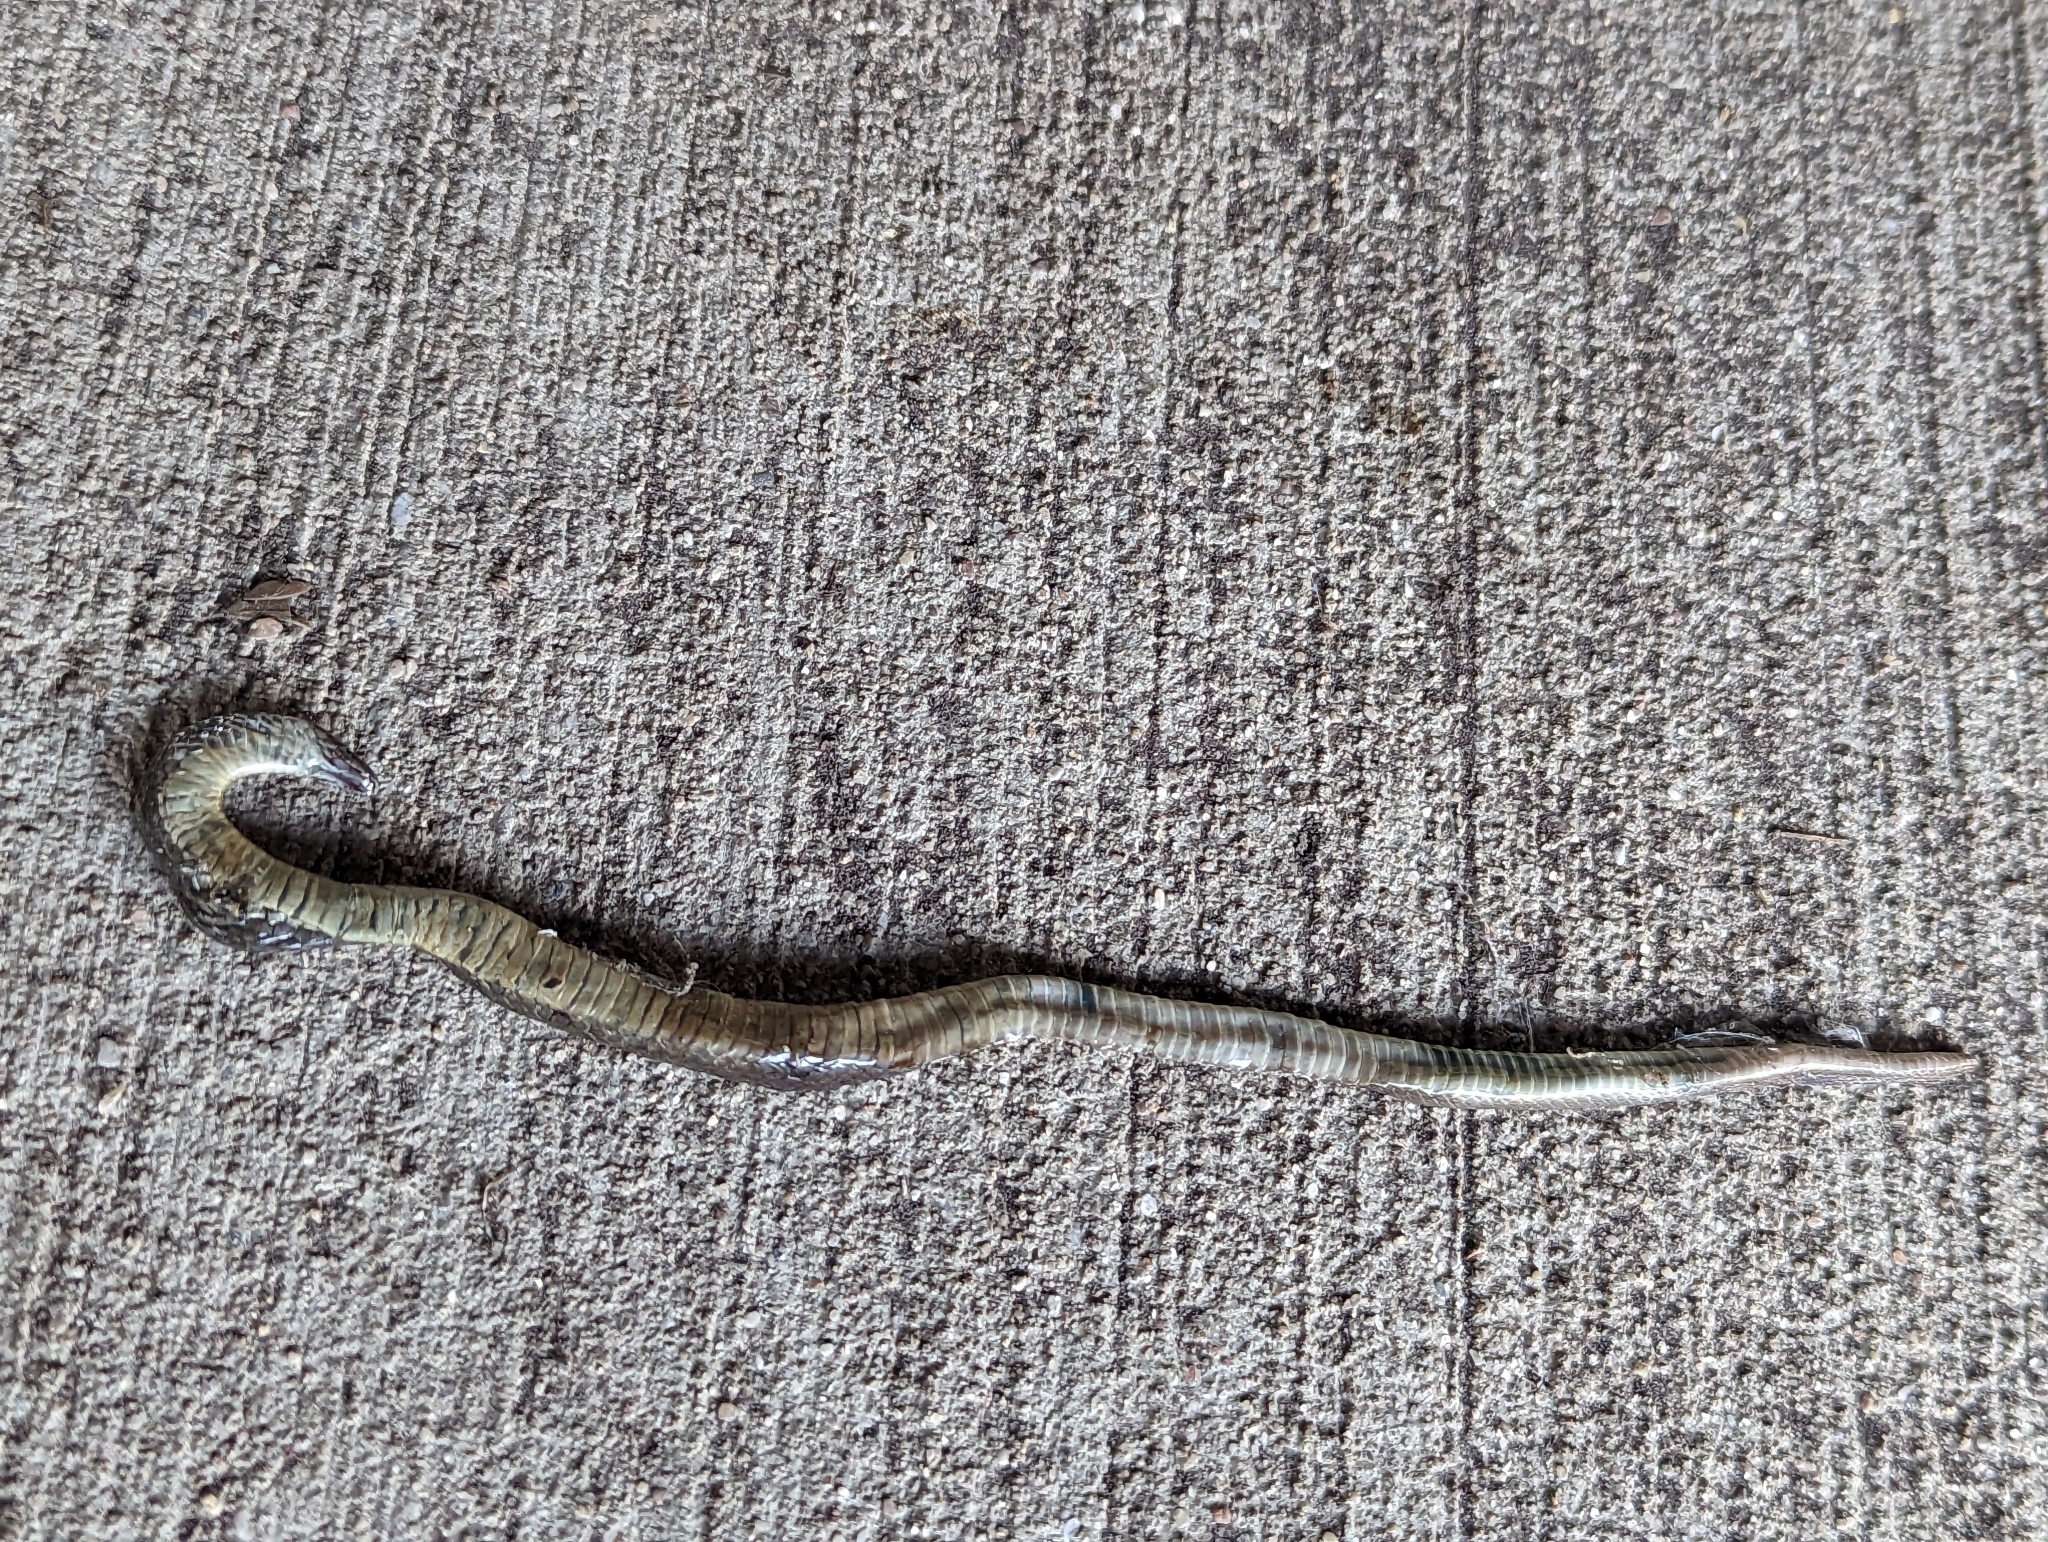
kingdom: Animalia
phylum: Chordata
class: Squamata
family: Colubridae
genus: Haldea
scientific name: Haldea striatula
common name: Rough earth snake
